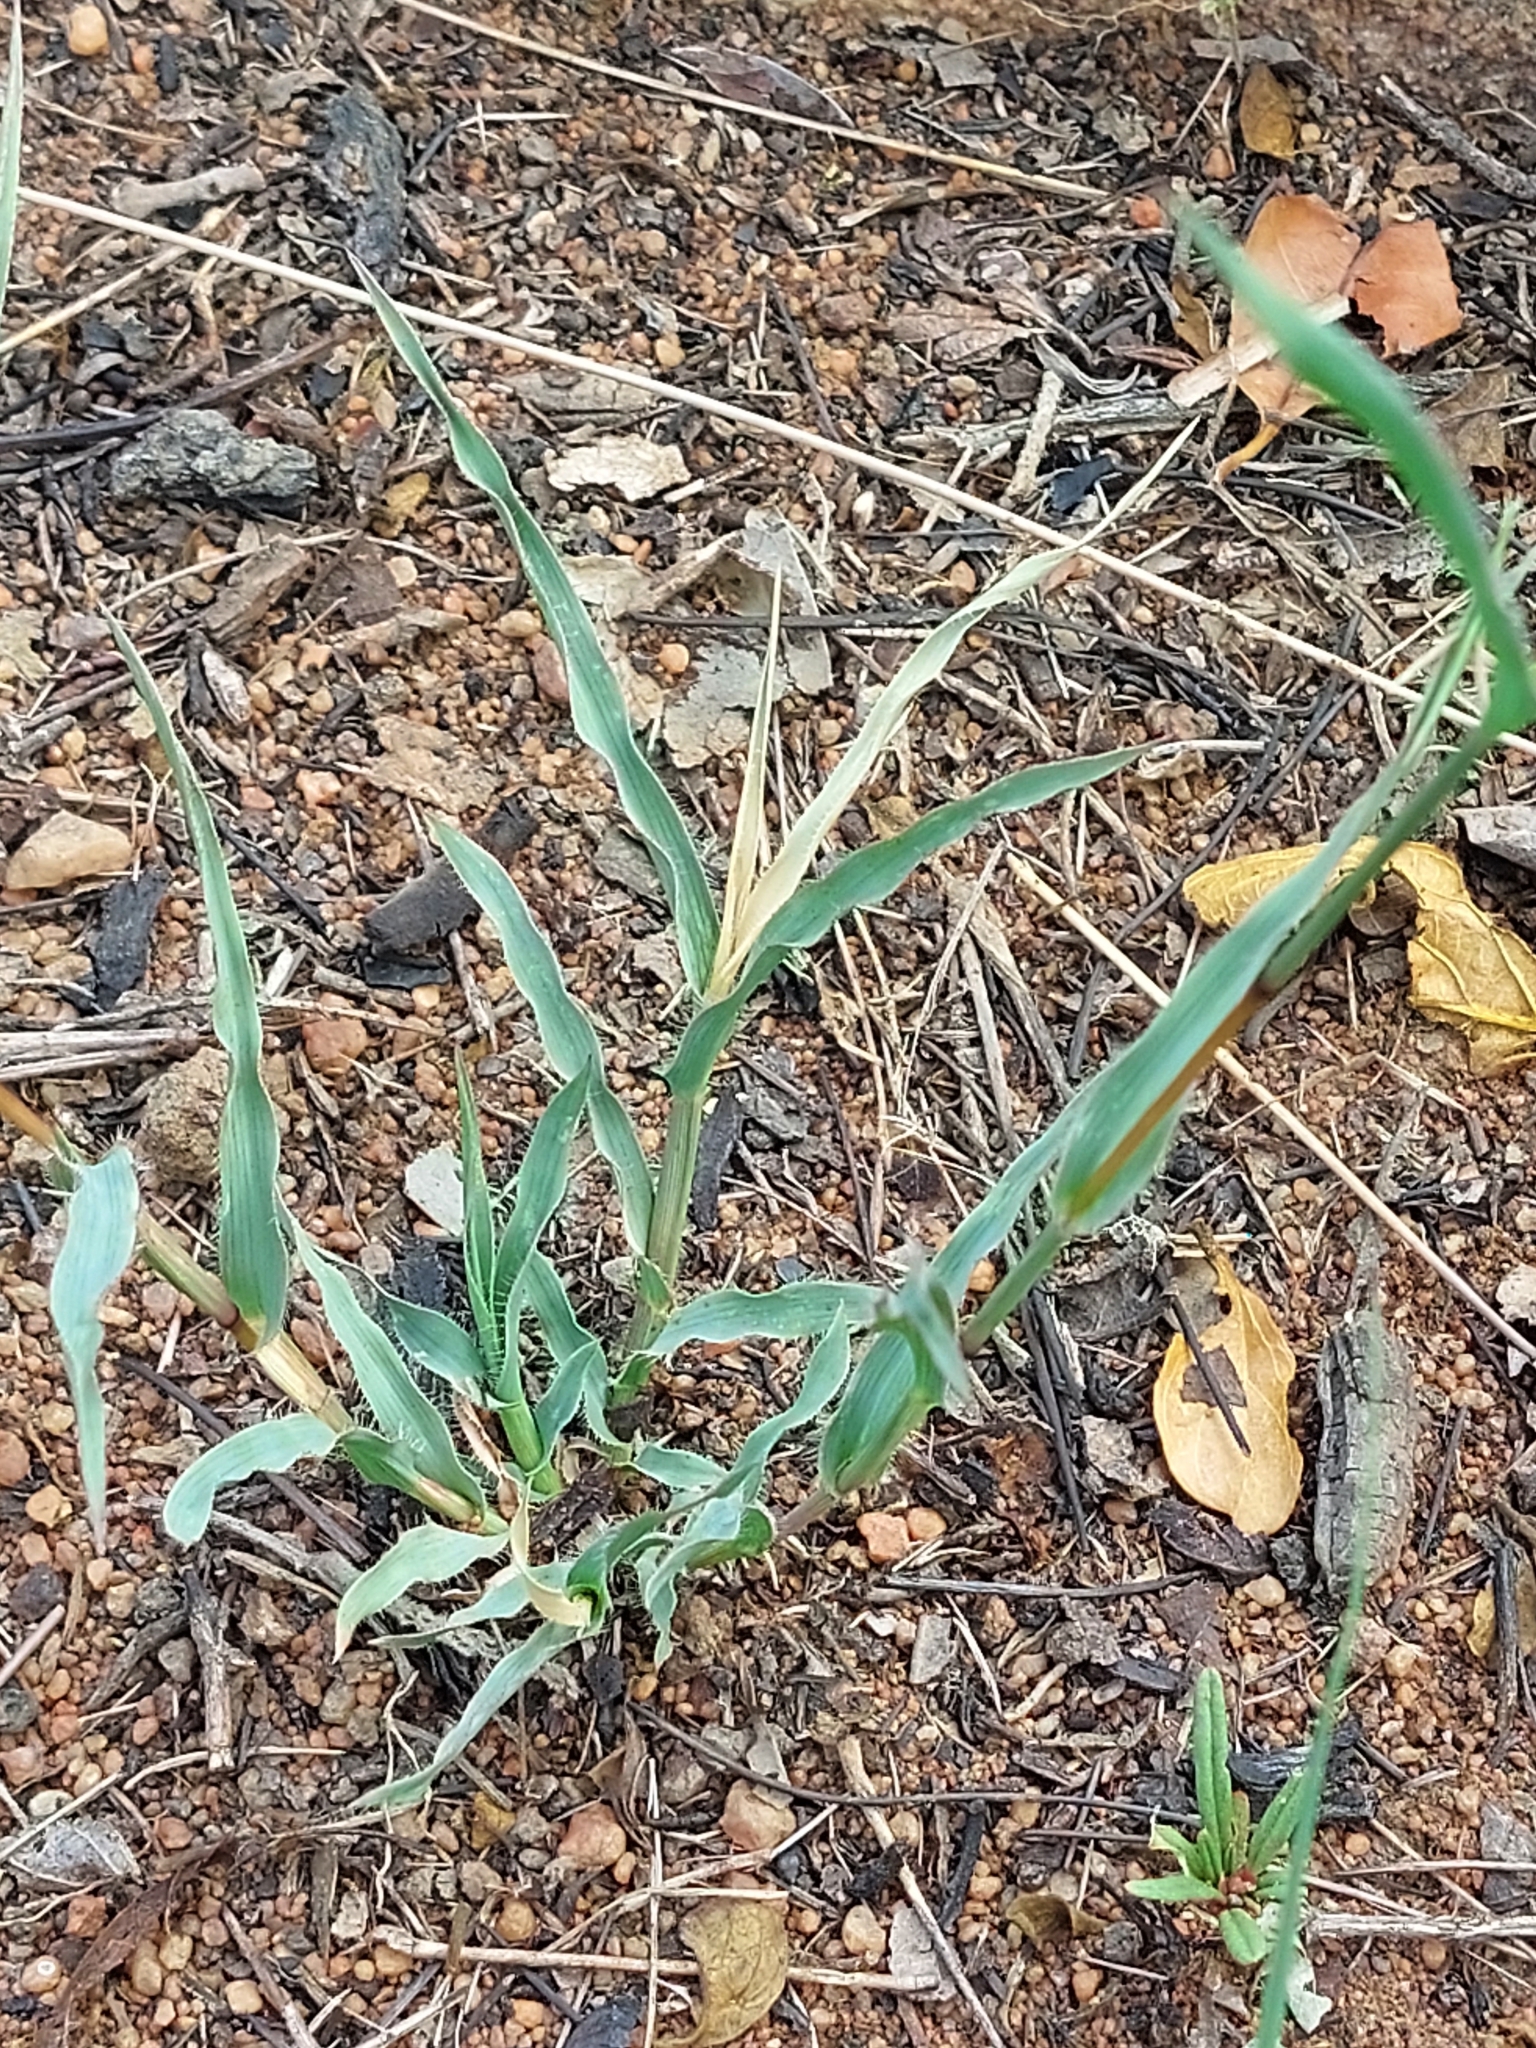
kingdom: Plantae
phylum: Tracheophyta
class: Liliopsida
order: Poales
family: Poaceae
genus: Tragus
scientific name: Tragus berteronianus
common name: African bur-grass
